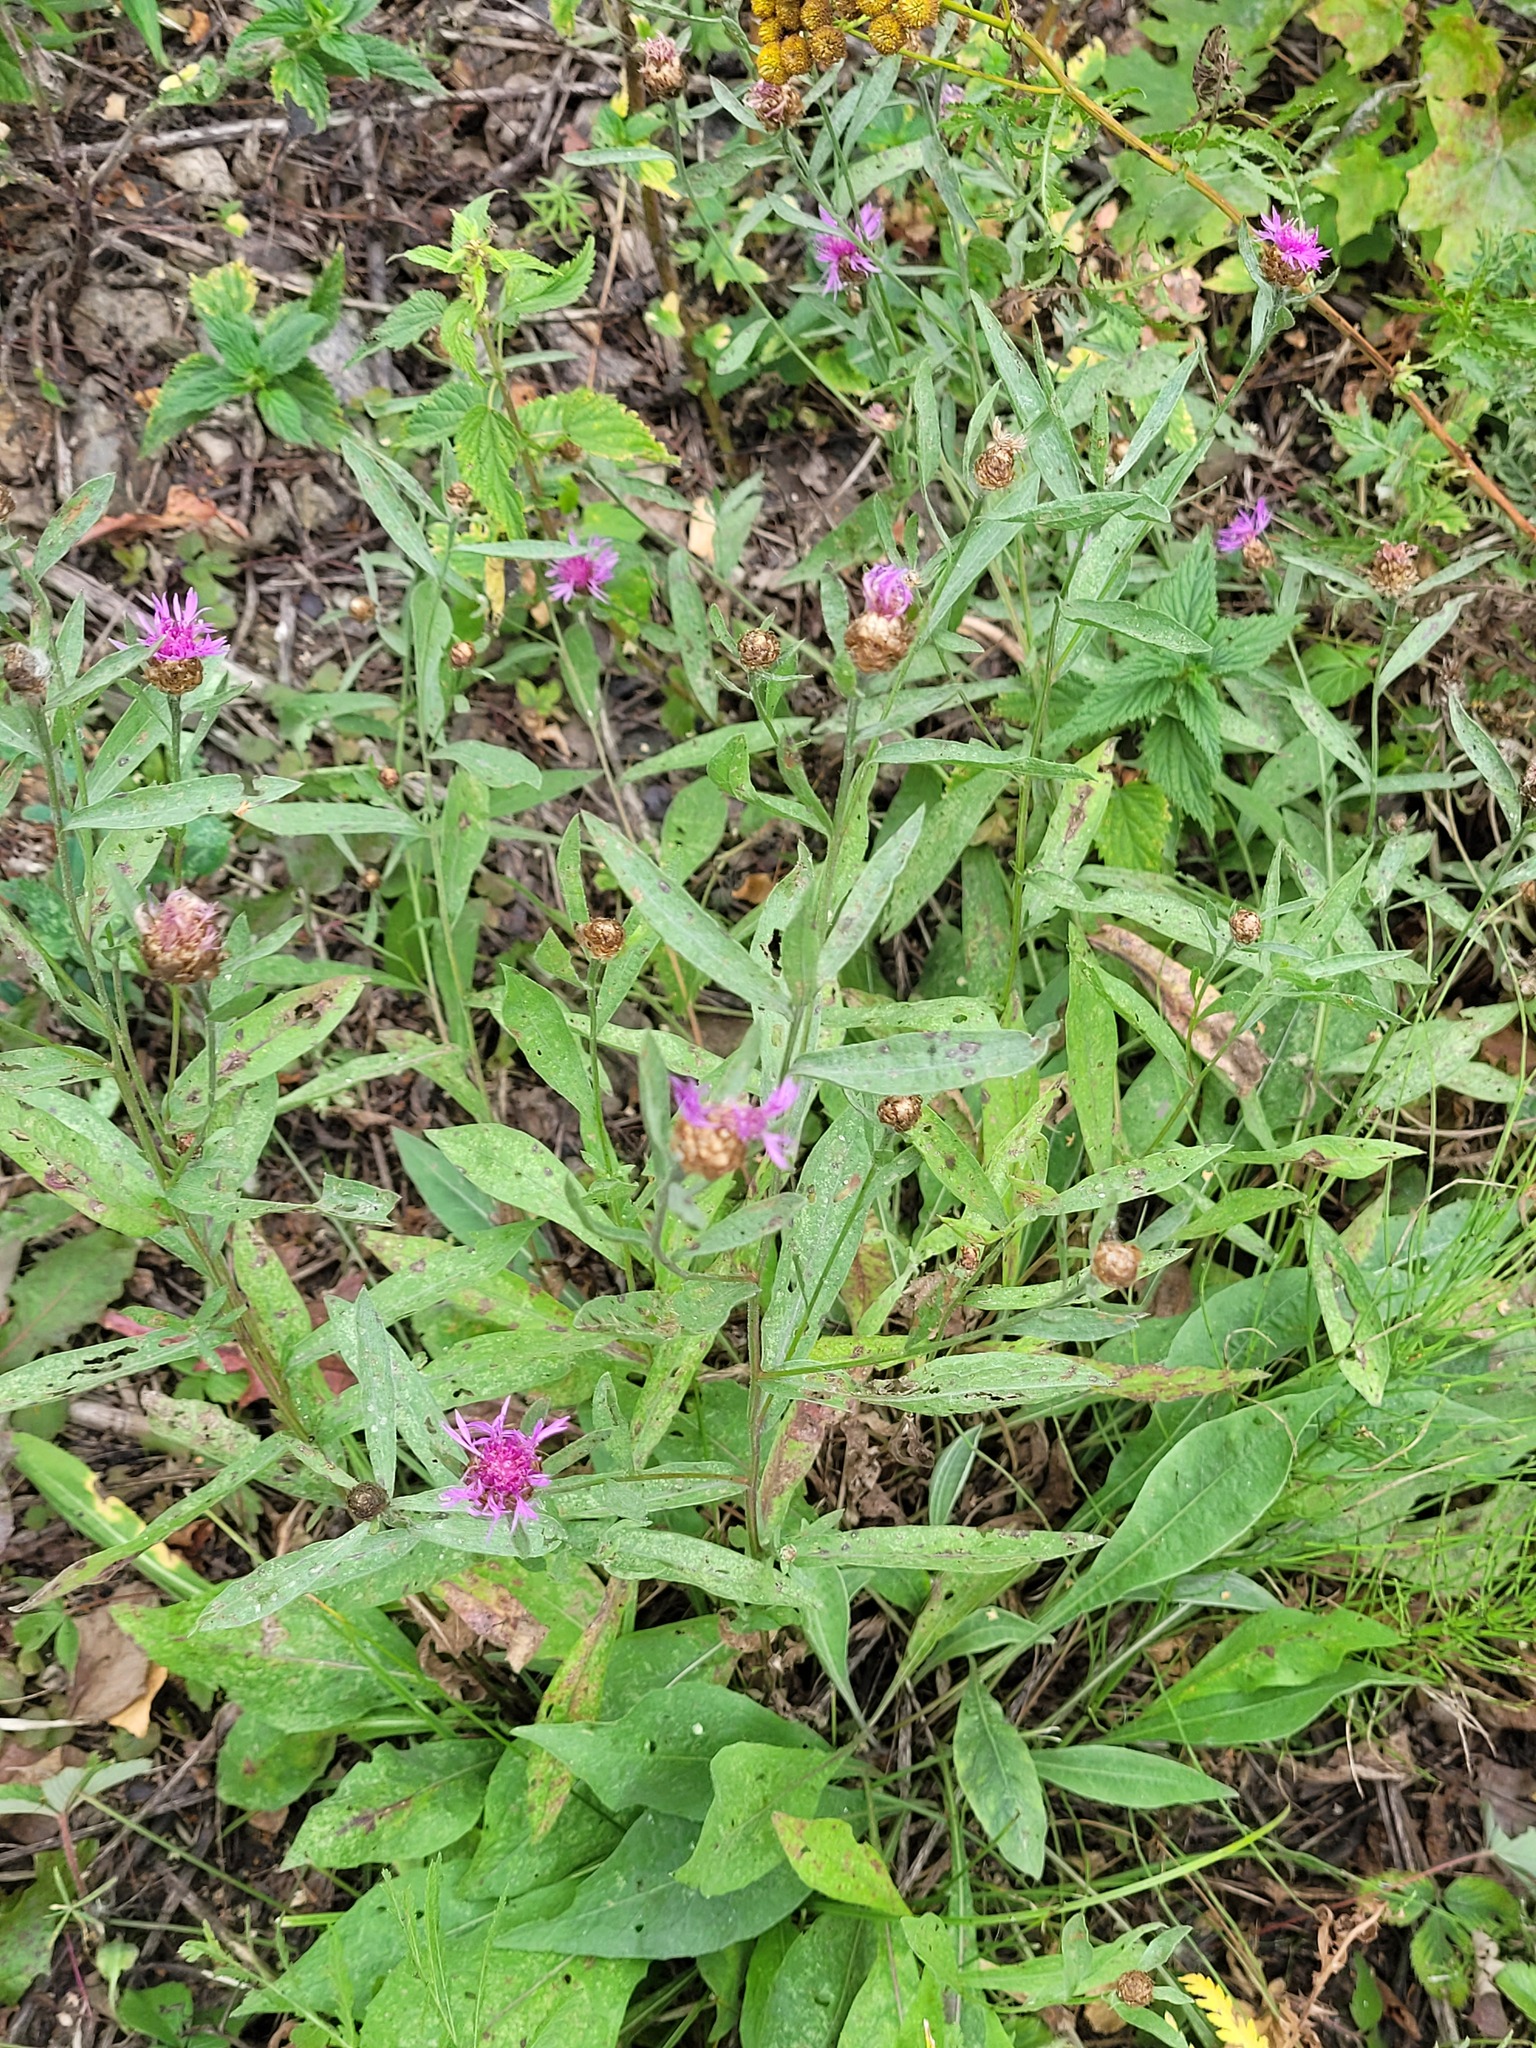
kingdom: Plantae
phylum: Tracheophyta
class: Magnoliopsida
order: Asterales
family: Asteraceae
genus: Centaurea
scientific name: Centaurea jacea
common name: Brown knapweed
